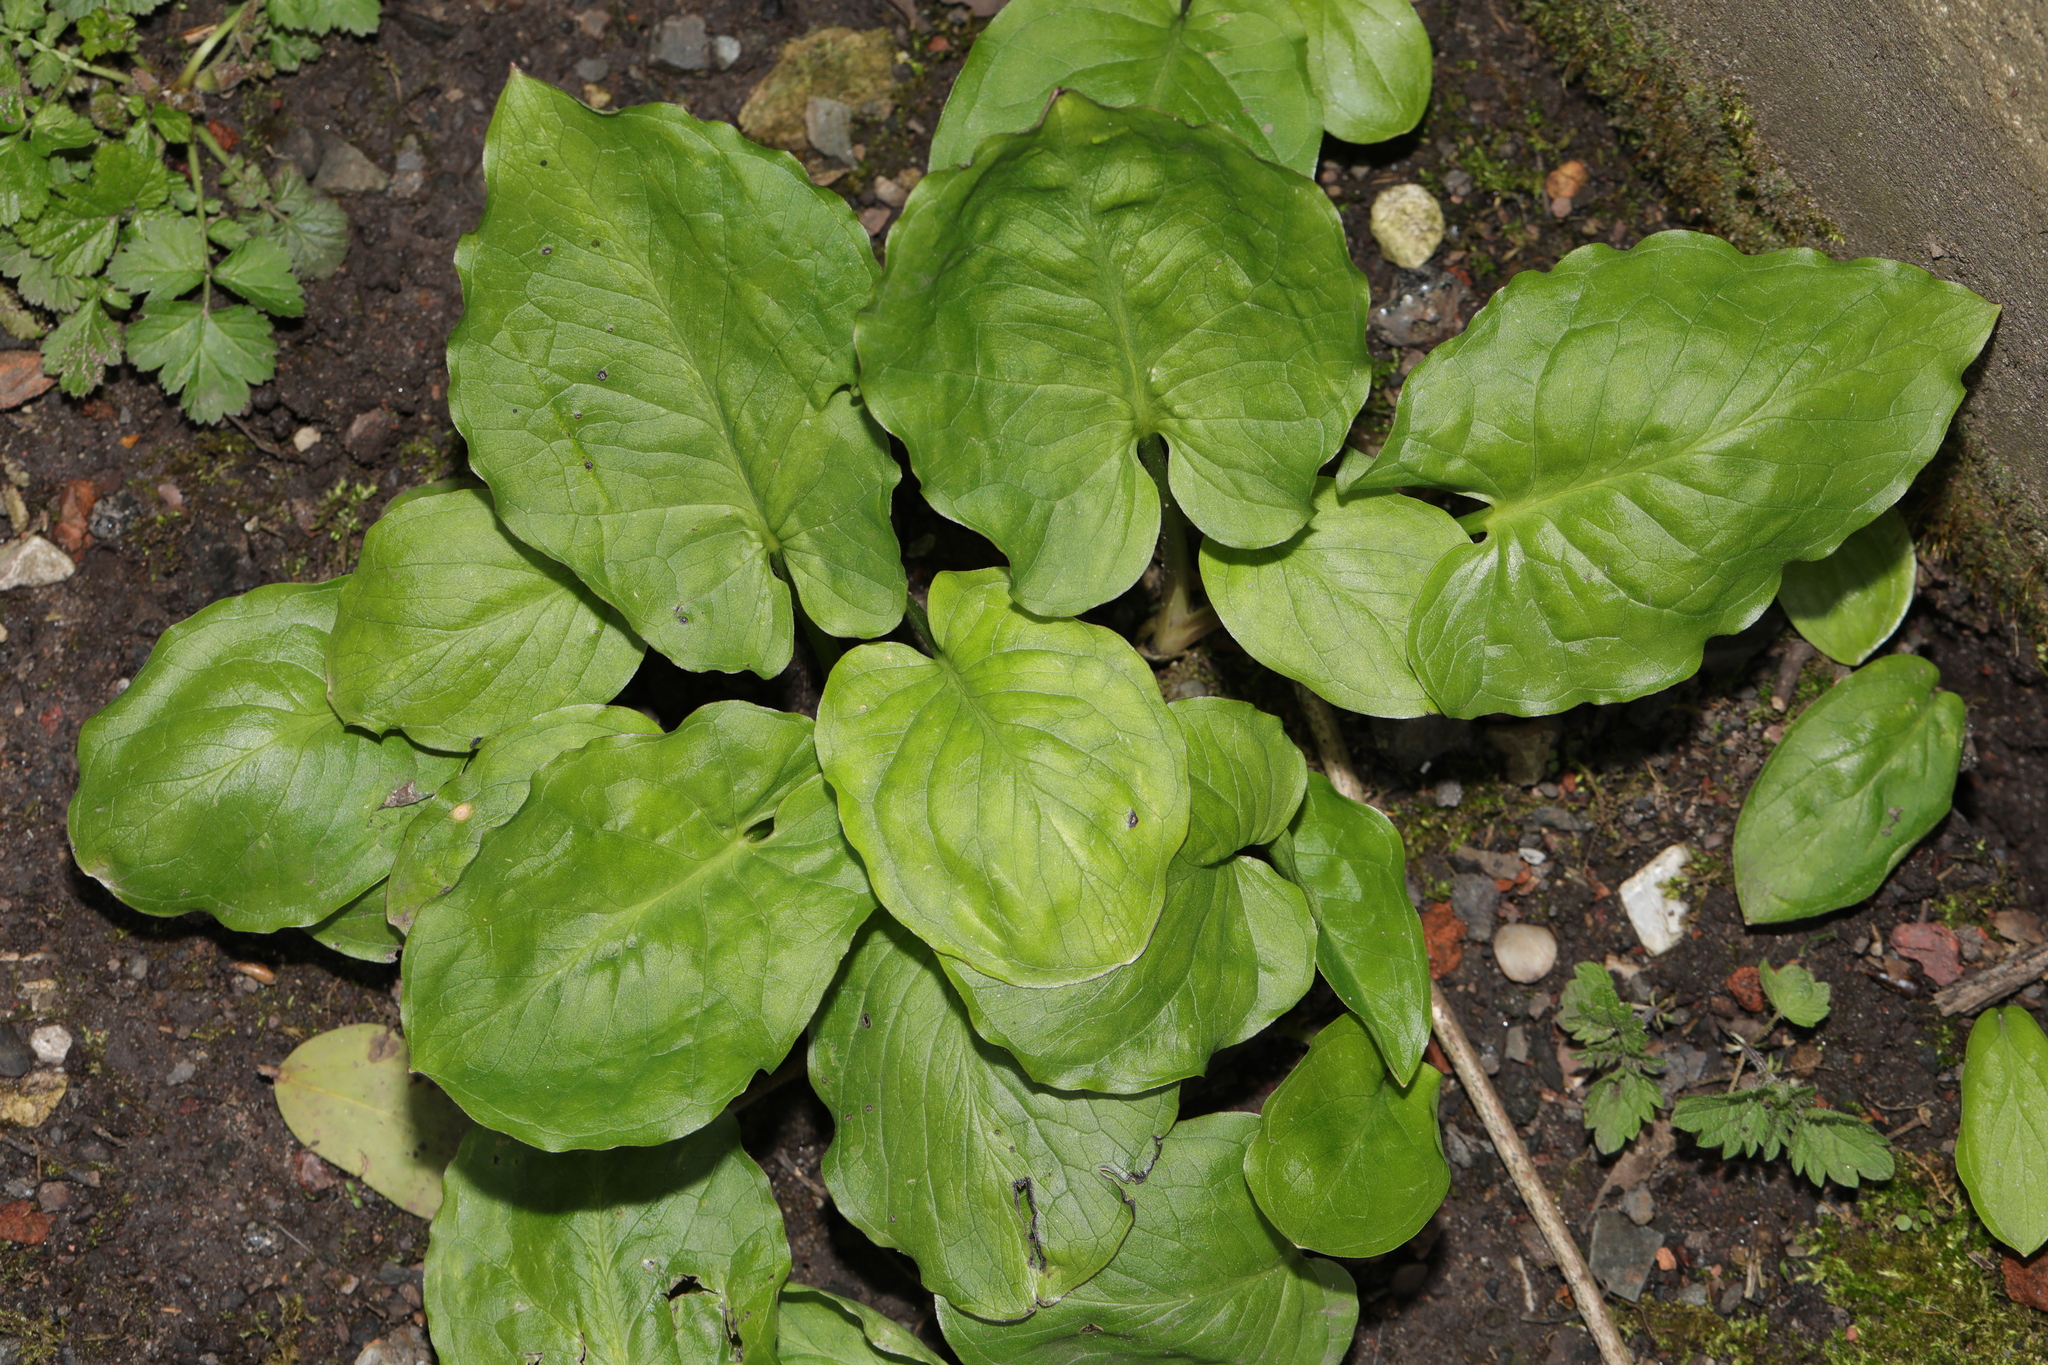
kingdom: Plantae
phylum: Tracheophyta
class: Liliopsida
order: Alismatales
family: Araceae
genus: Arum
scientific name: Arum maculatum
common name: Lords-and-ladies
